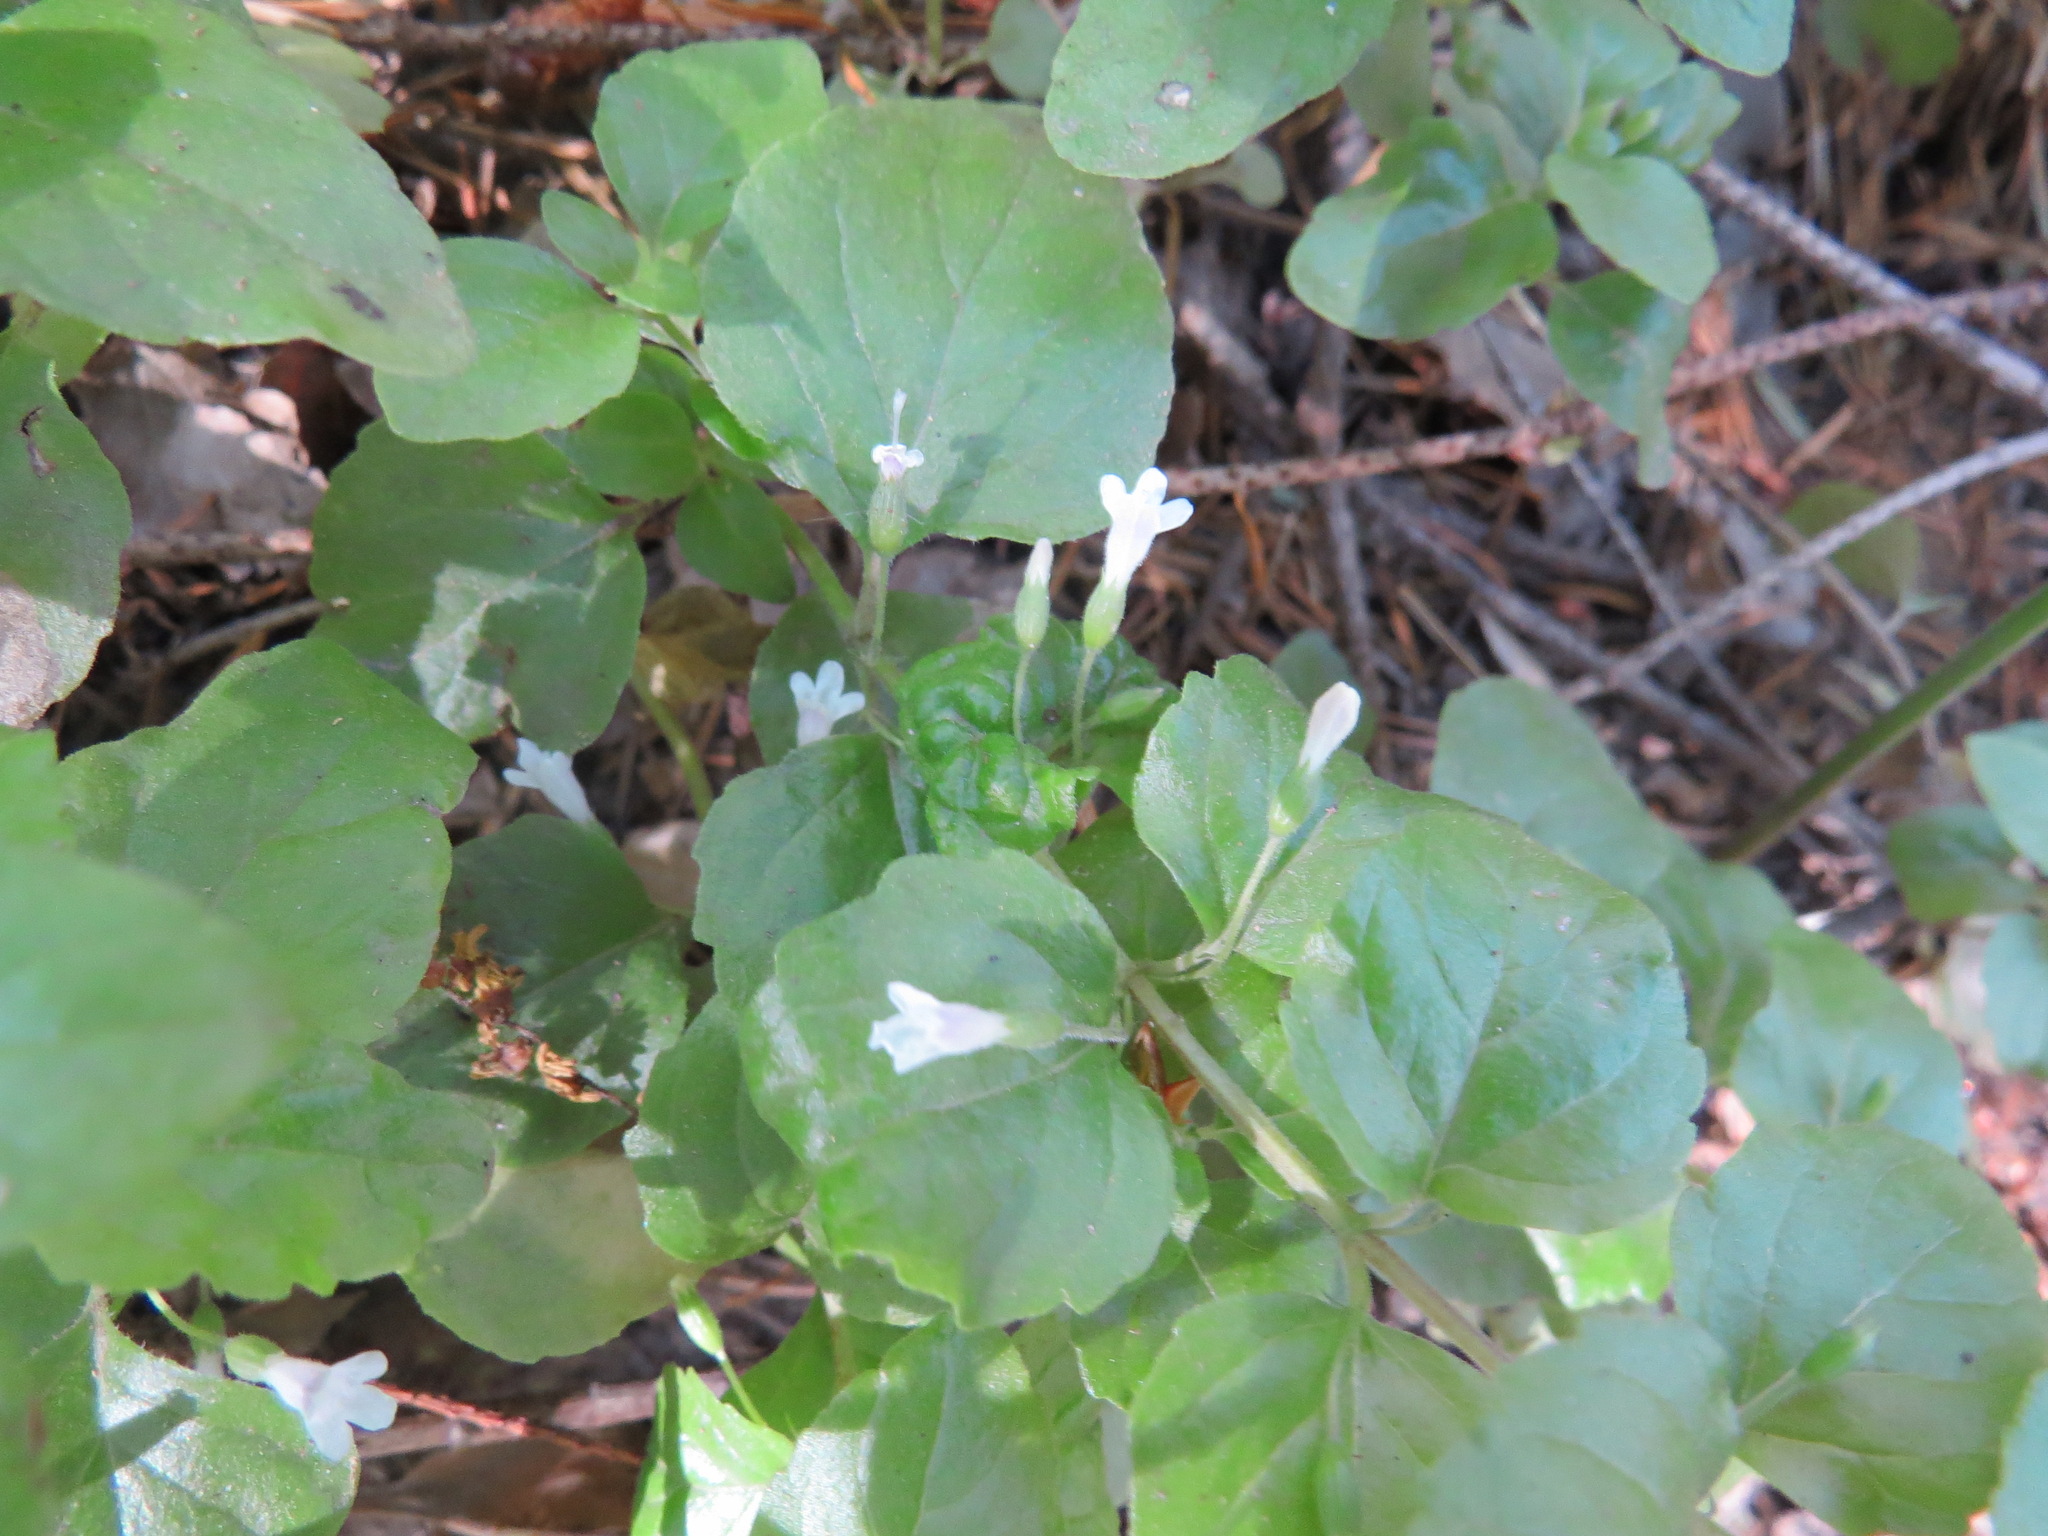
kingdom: Plantae
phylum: Tracheophyta
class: Magnoliopsida
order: Lamiales
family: Lamiaceae
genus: Micromeria
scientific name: Micromeria douglasii
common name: Yerba buena
